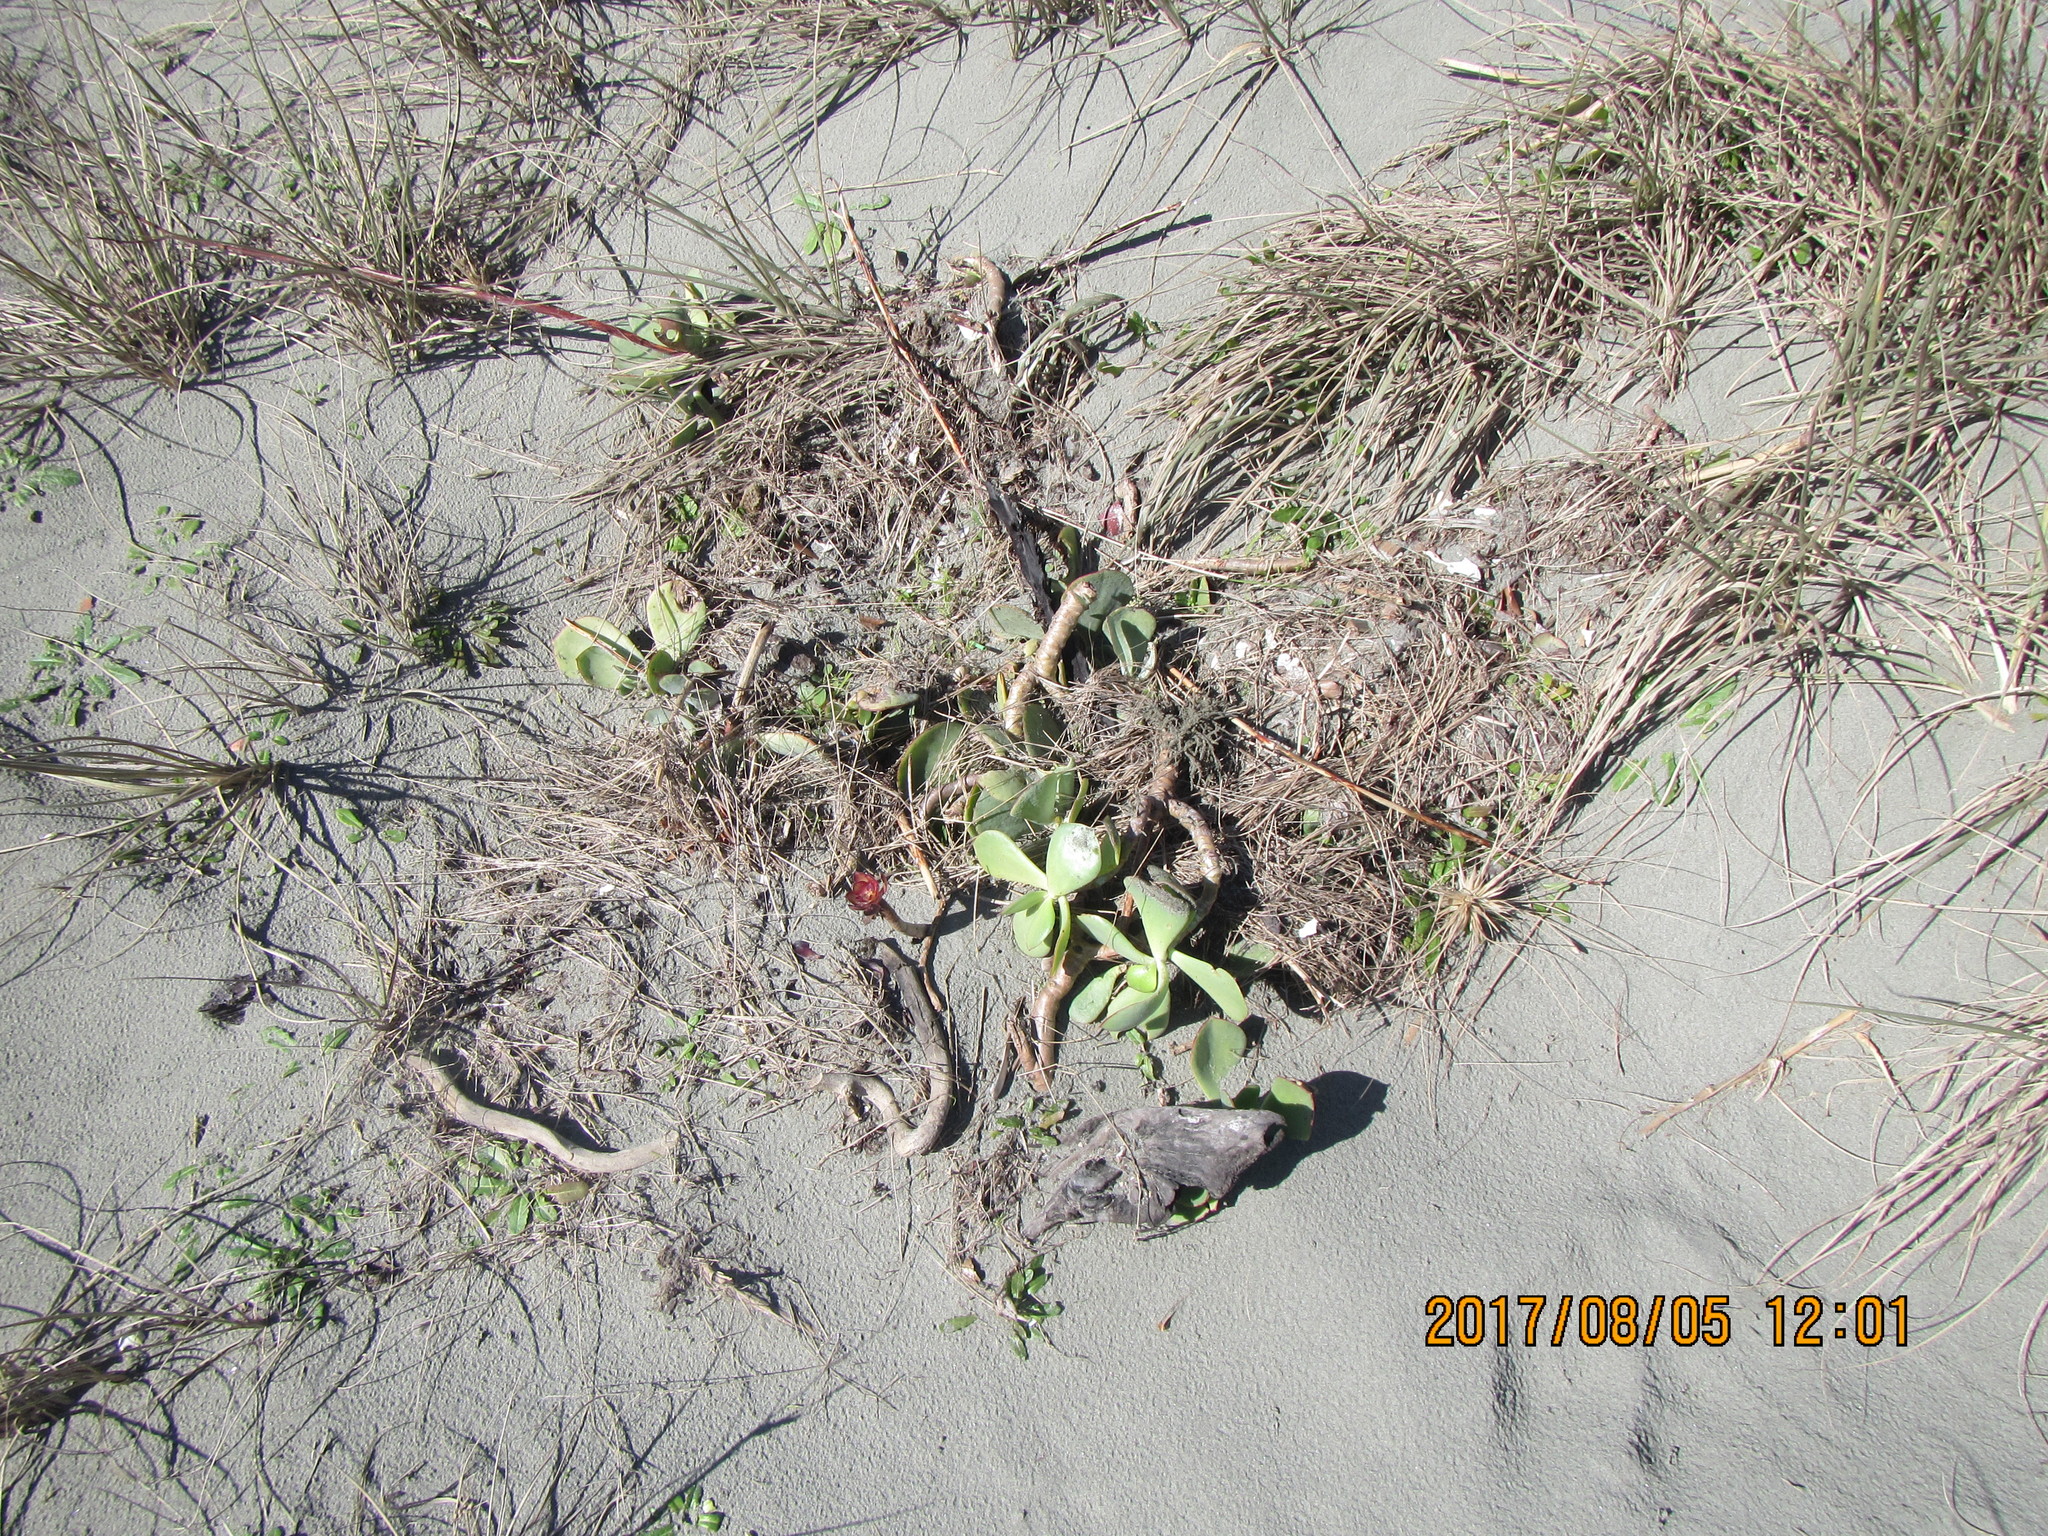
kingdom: Plantae
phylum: Tracheophyta
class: Magnoliopsida
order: Saxifragales
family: Crassulaceae
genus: Cotyledon
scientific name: Cotyledon orbiculata
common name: Pig's ear
